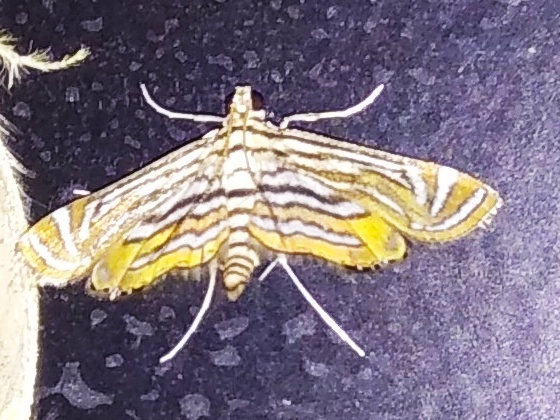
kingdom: Animalia
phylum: Arthropoda
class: Insecta
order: Lepidoptera
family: Crambidae
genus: Parapoynx
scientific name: Parapoynx fluctuosalis
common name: Moth
